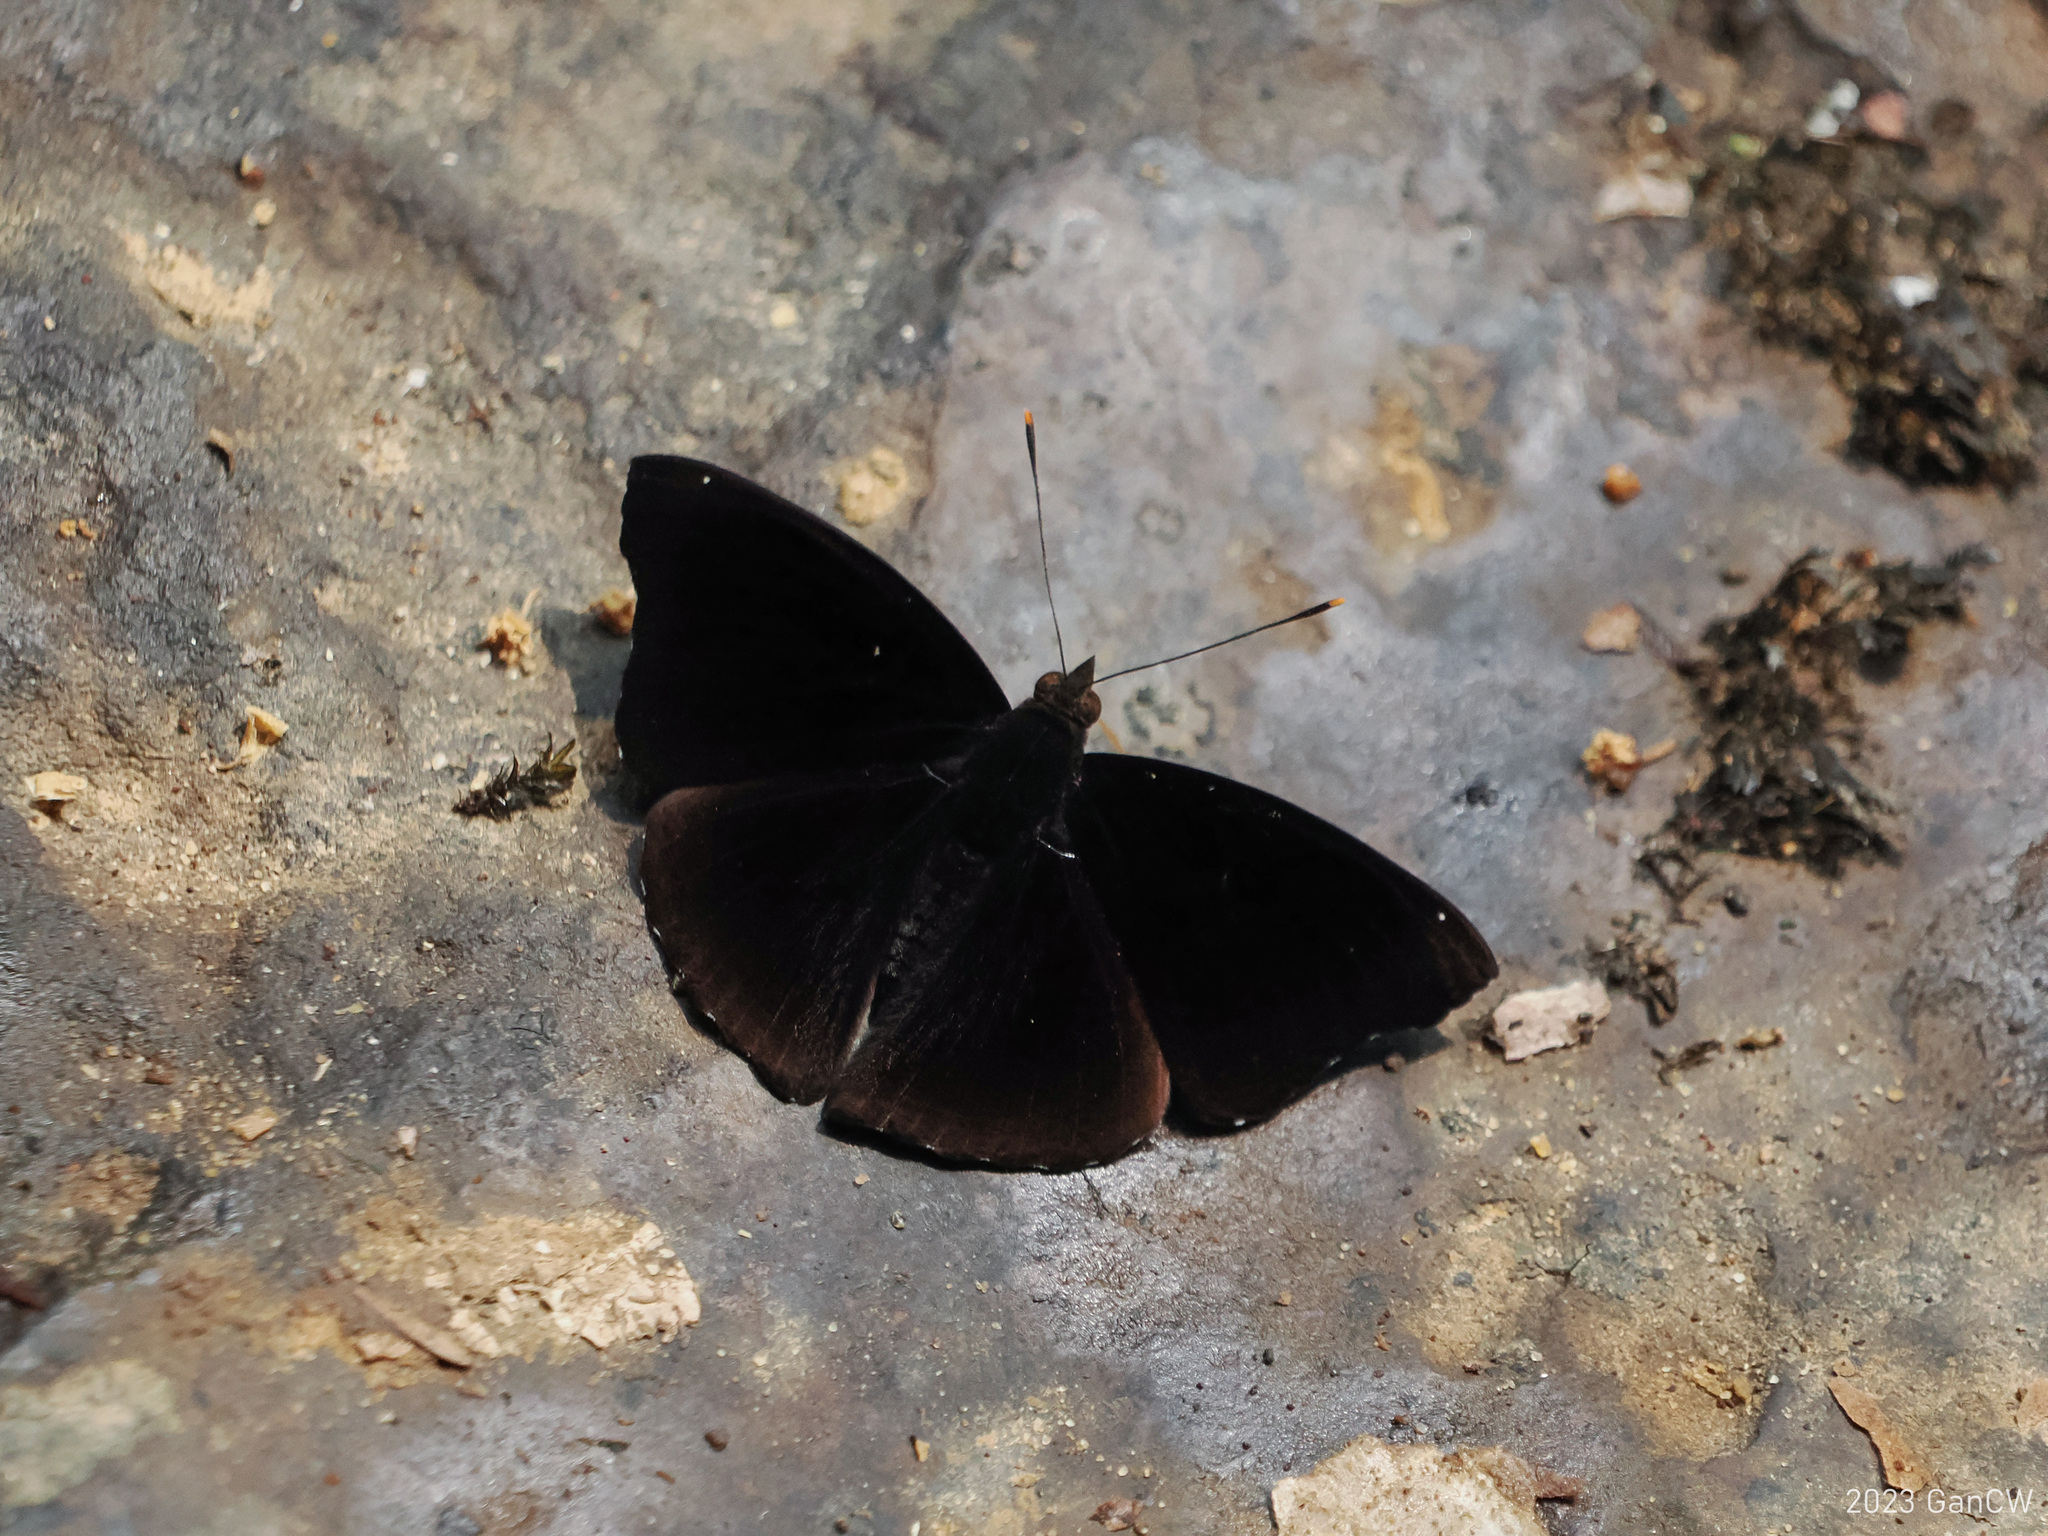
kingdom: Animalia
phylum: Arthropoda
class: Insecta
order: Lepidoptera
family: Nymphalidae
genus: Apatura
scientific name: Apatura Rohana spec
